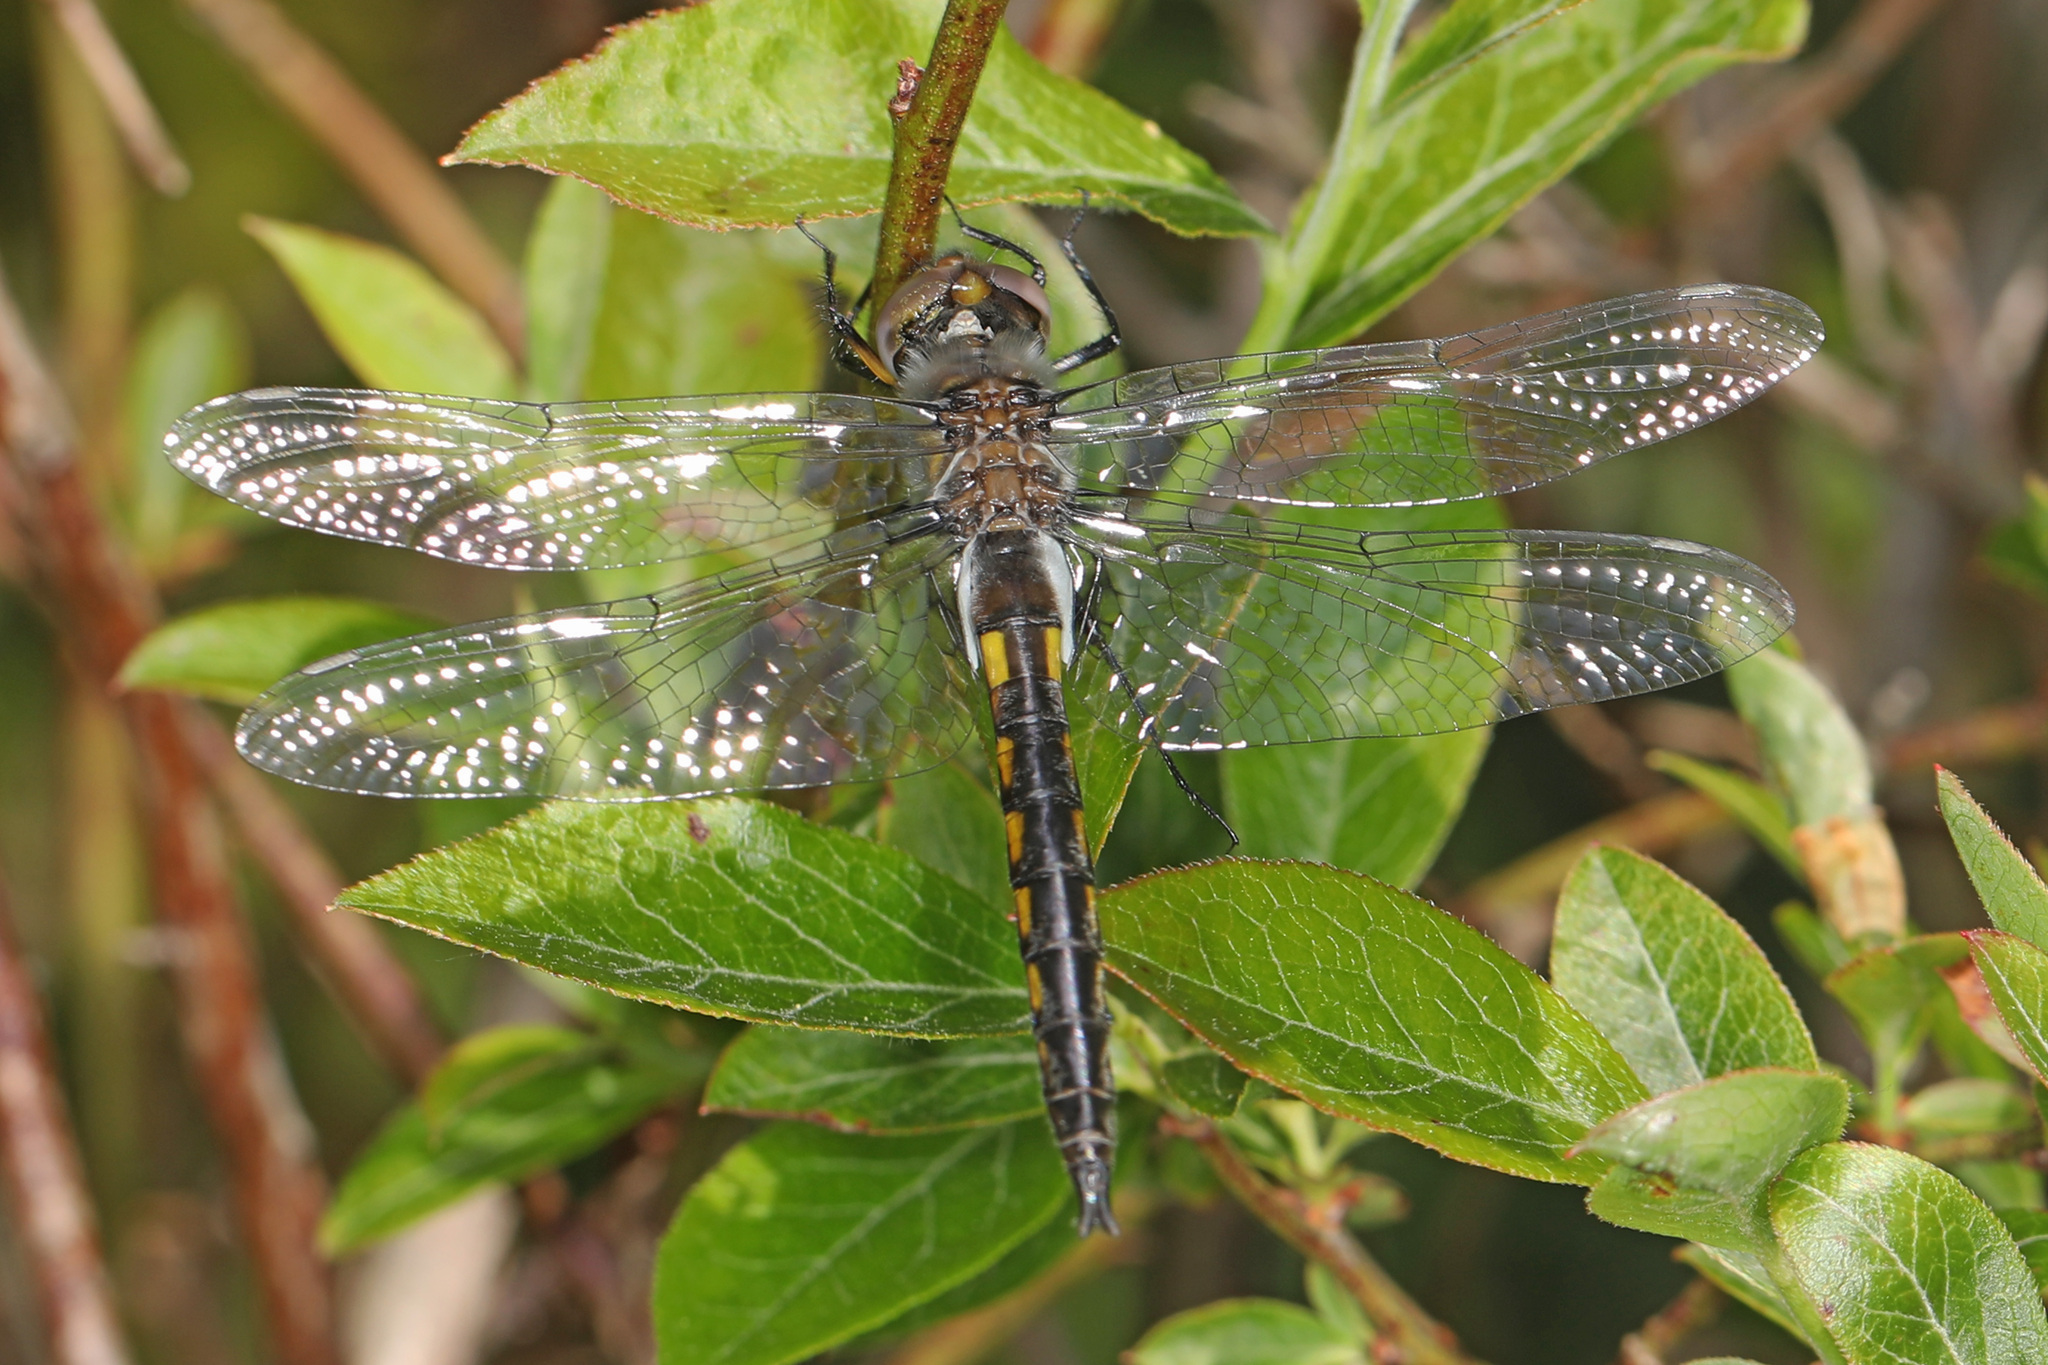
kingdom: Animalia
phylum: Arthropoda
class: Insecta
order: Odonata
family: Corduliidae
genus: Epitheca
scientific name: Epitheca cynosura
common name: Common baskettail
